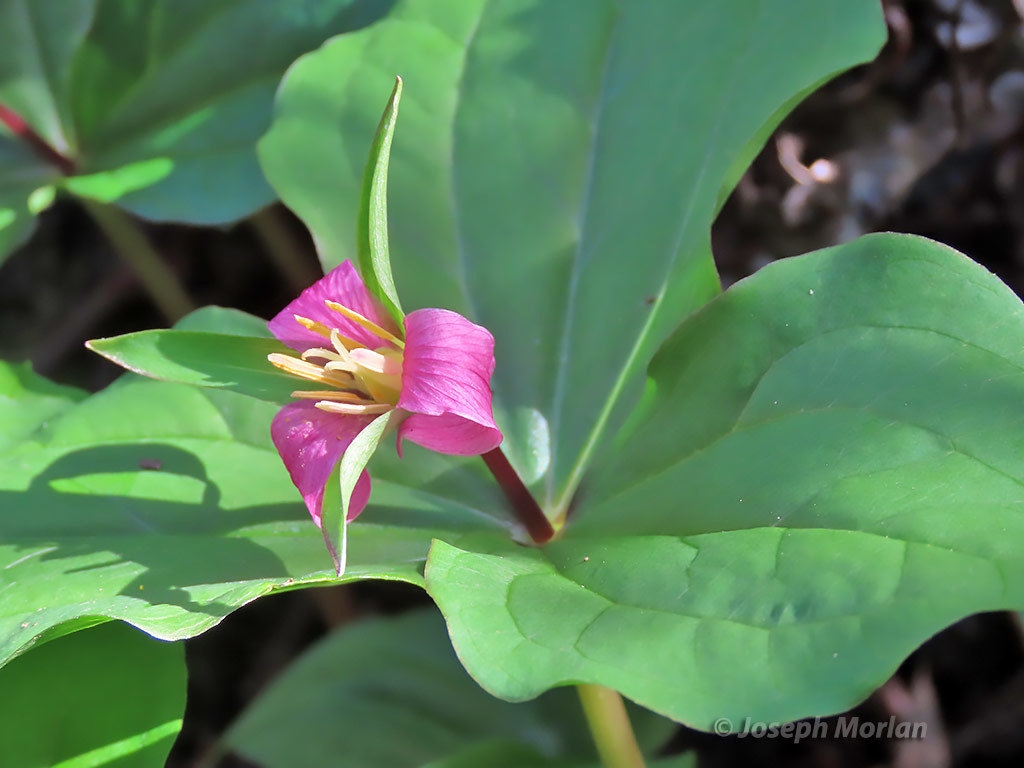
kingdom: Plantae
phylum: Tracheophyta
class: Liliopsida
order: Liliales
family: Melanthiaceae
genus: Trillium
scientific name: Trillium ovatum
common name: Pacific trillium
